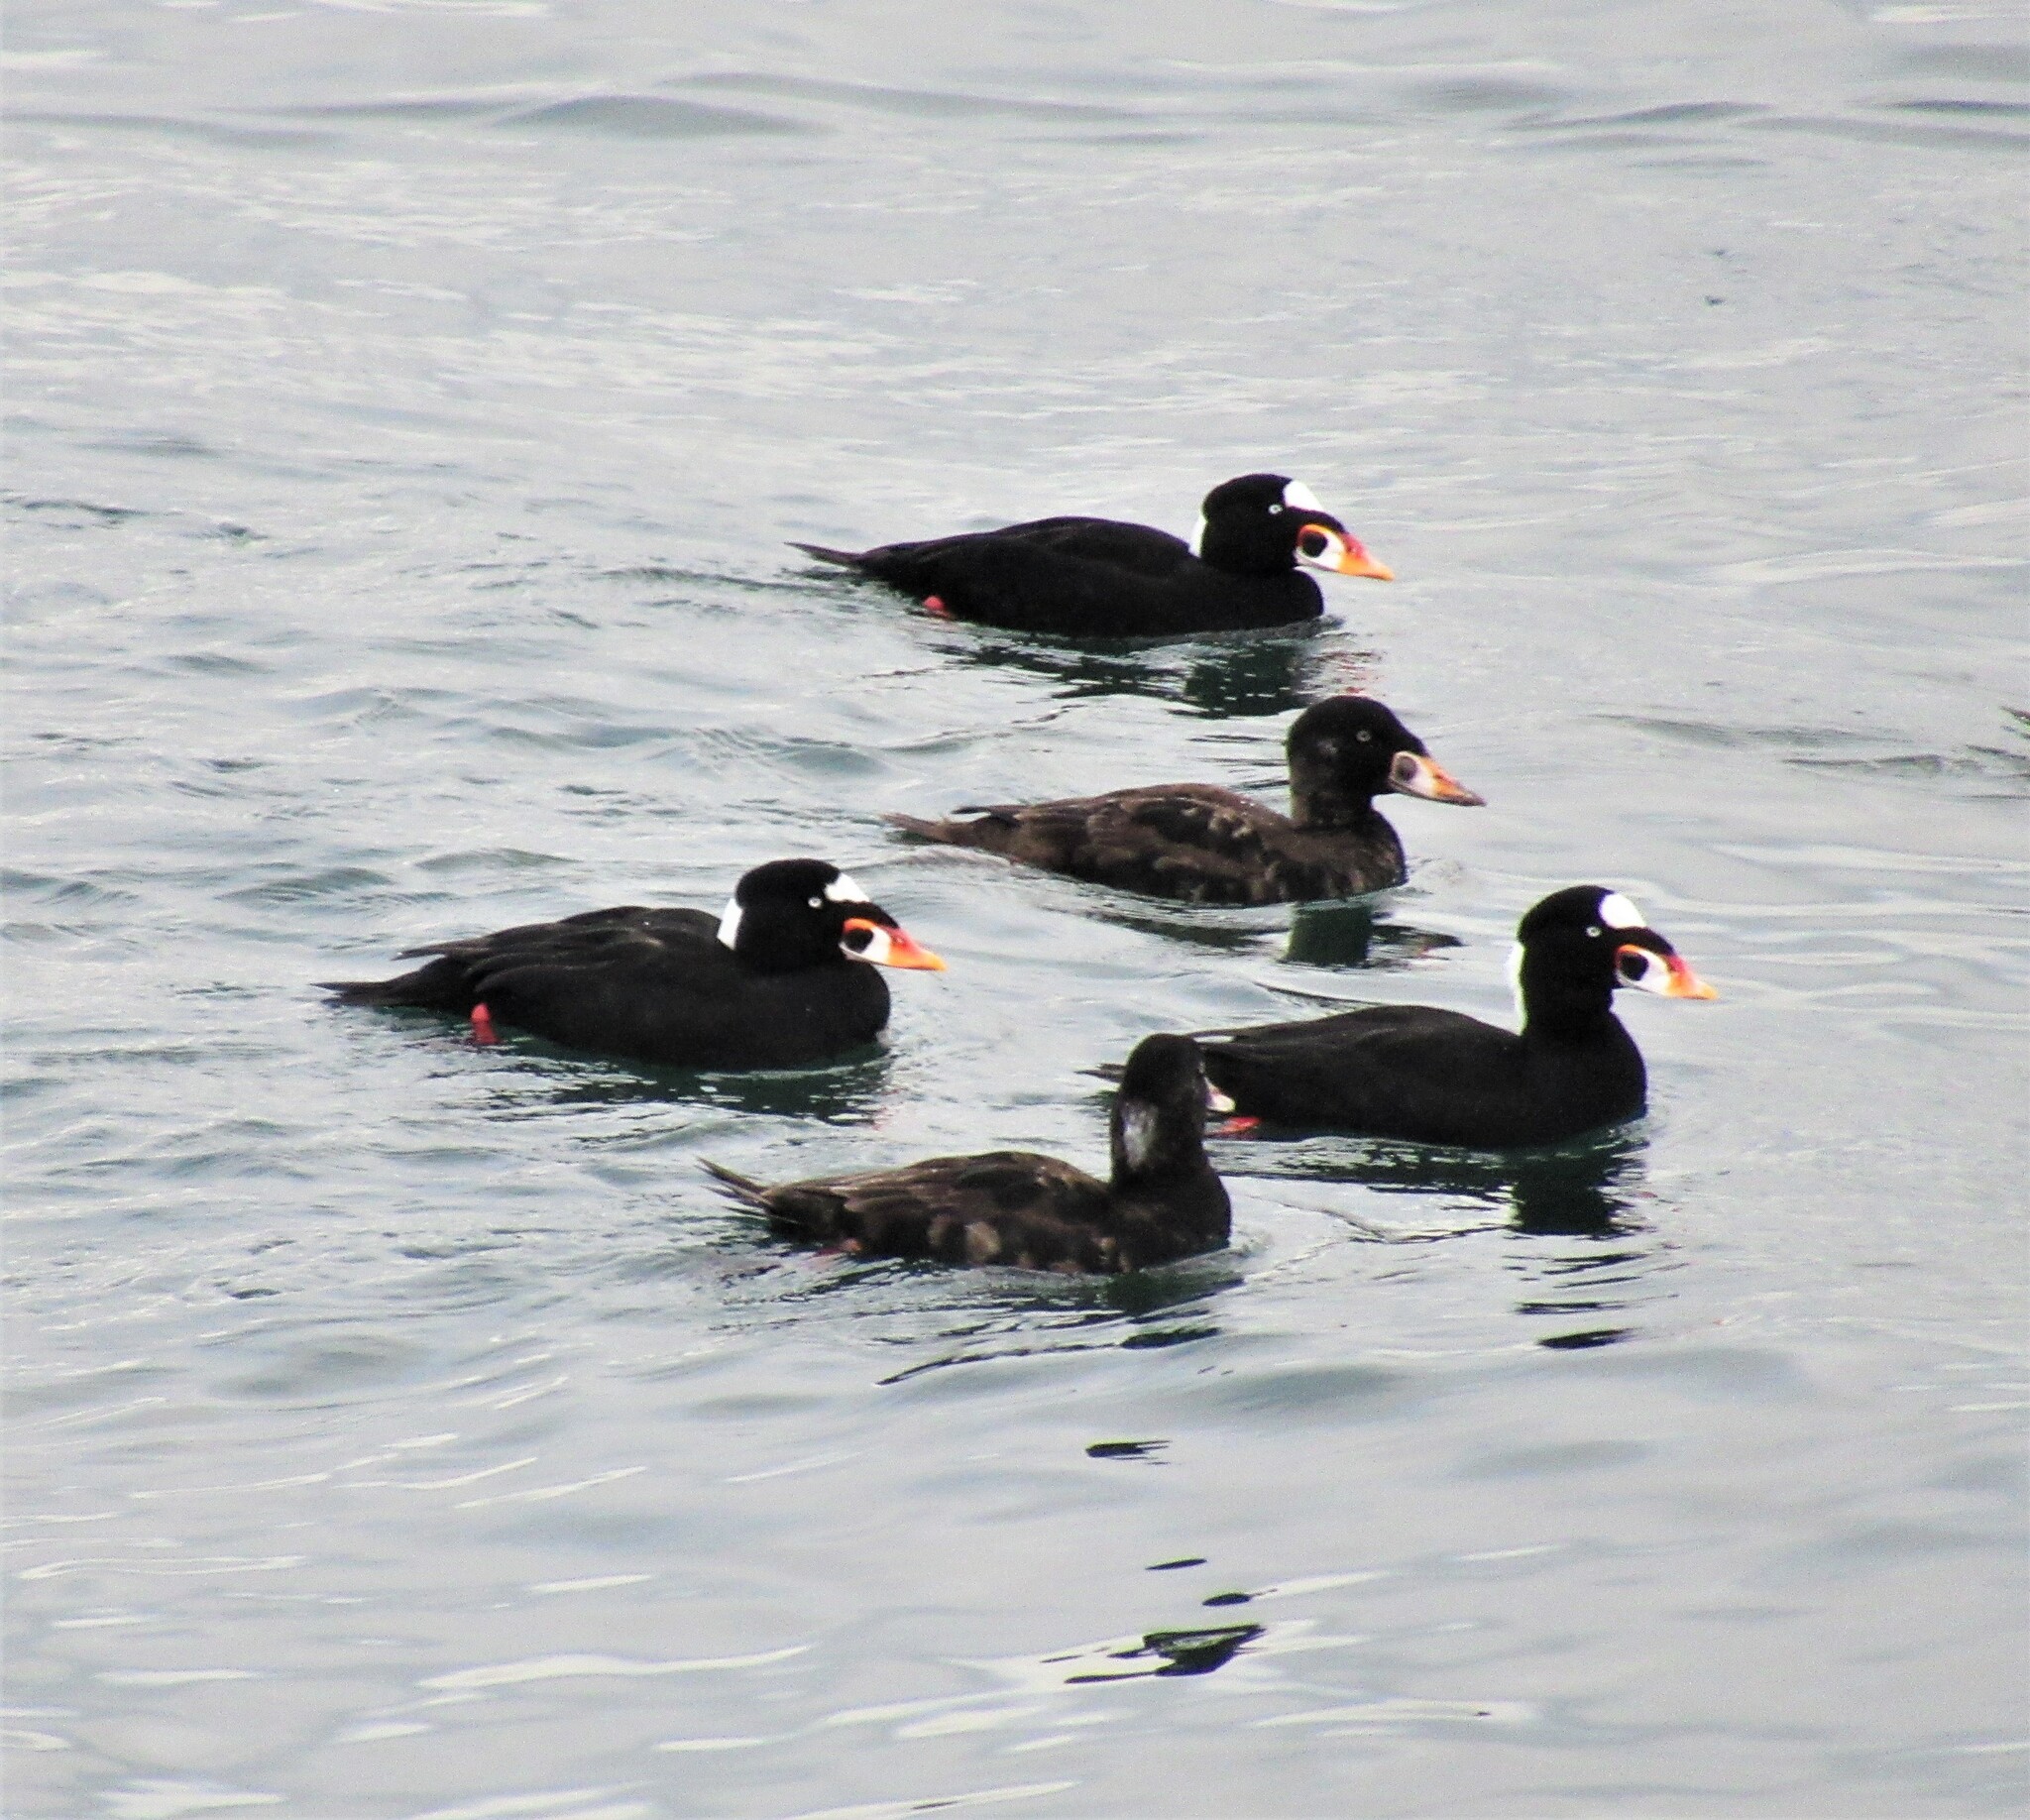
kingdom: Animalia
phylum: Chordata
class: Aves
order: Anseriformes
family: Anatidae
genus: Melanitta
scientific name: Melanitta perspicillata
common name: Surf scoter
